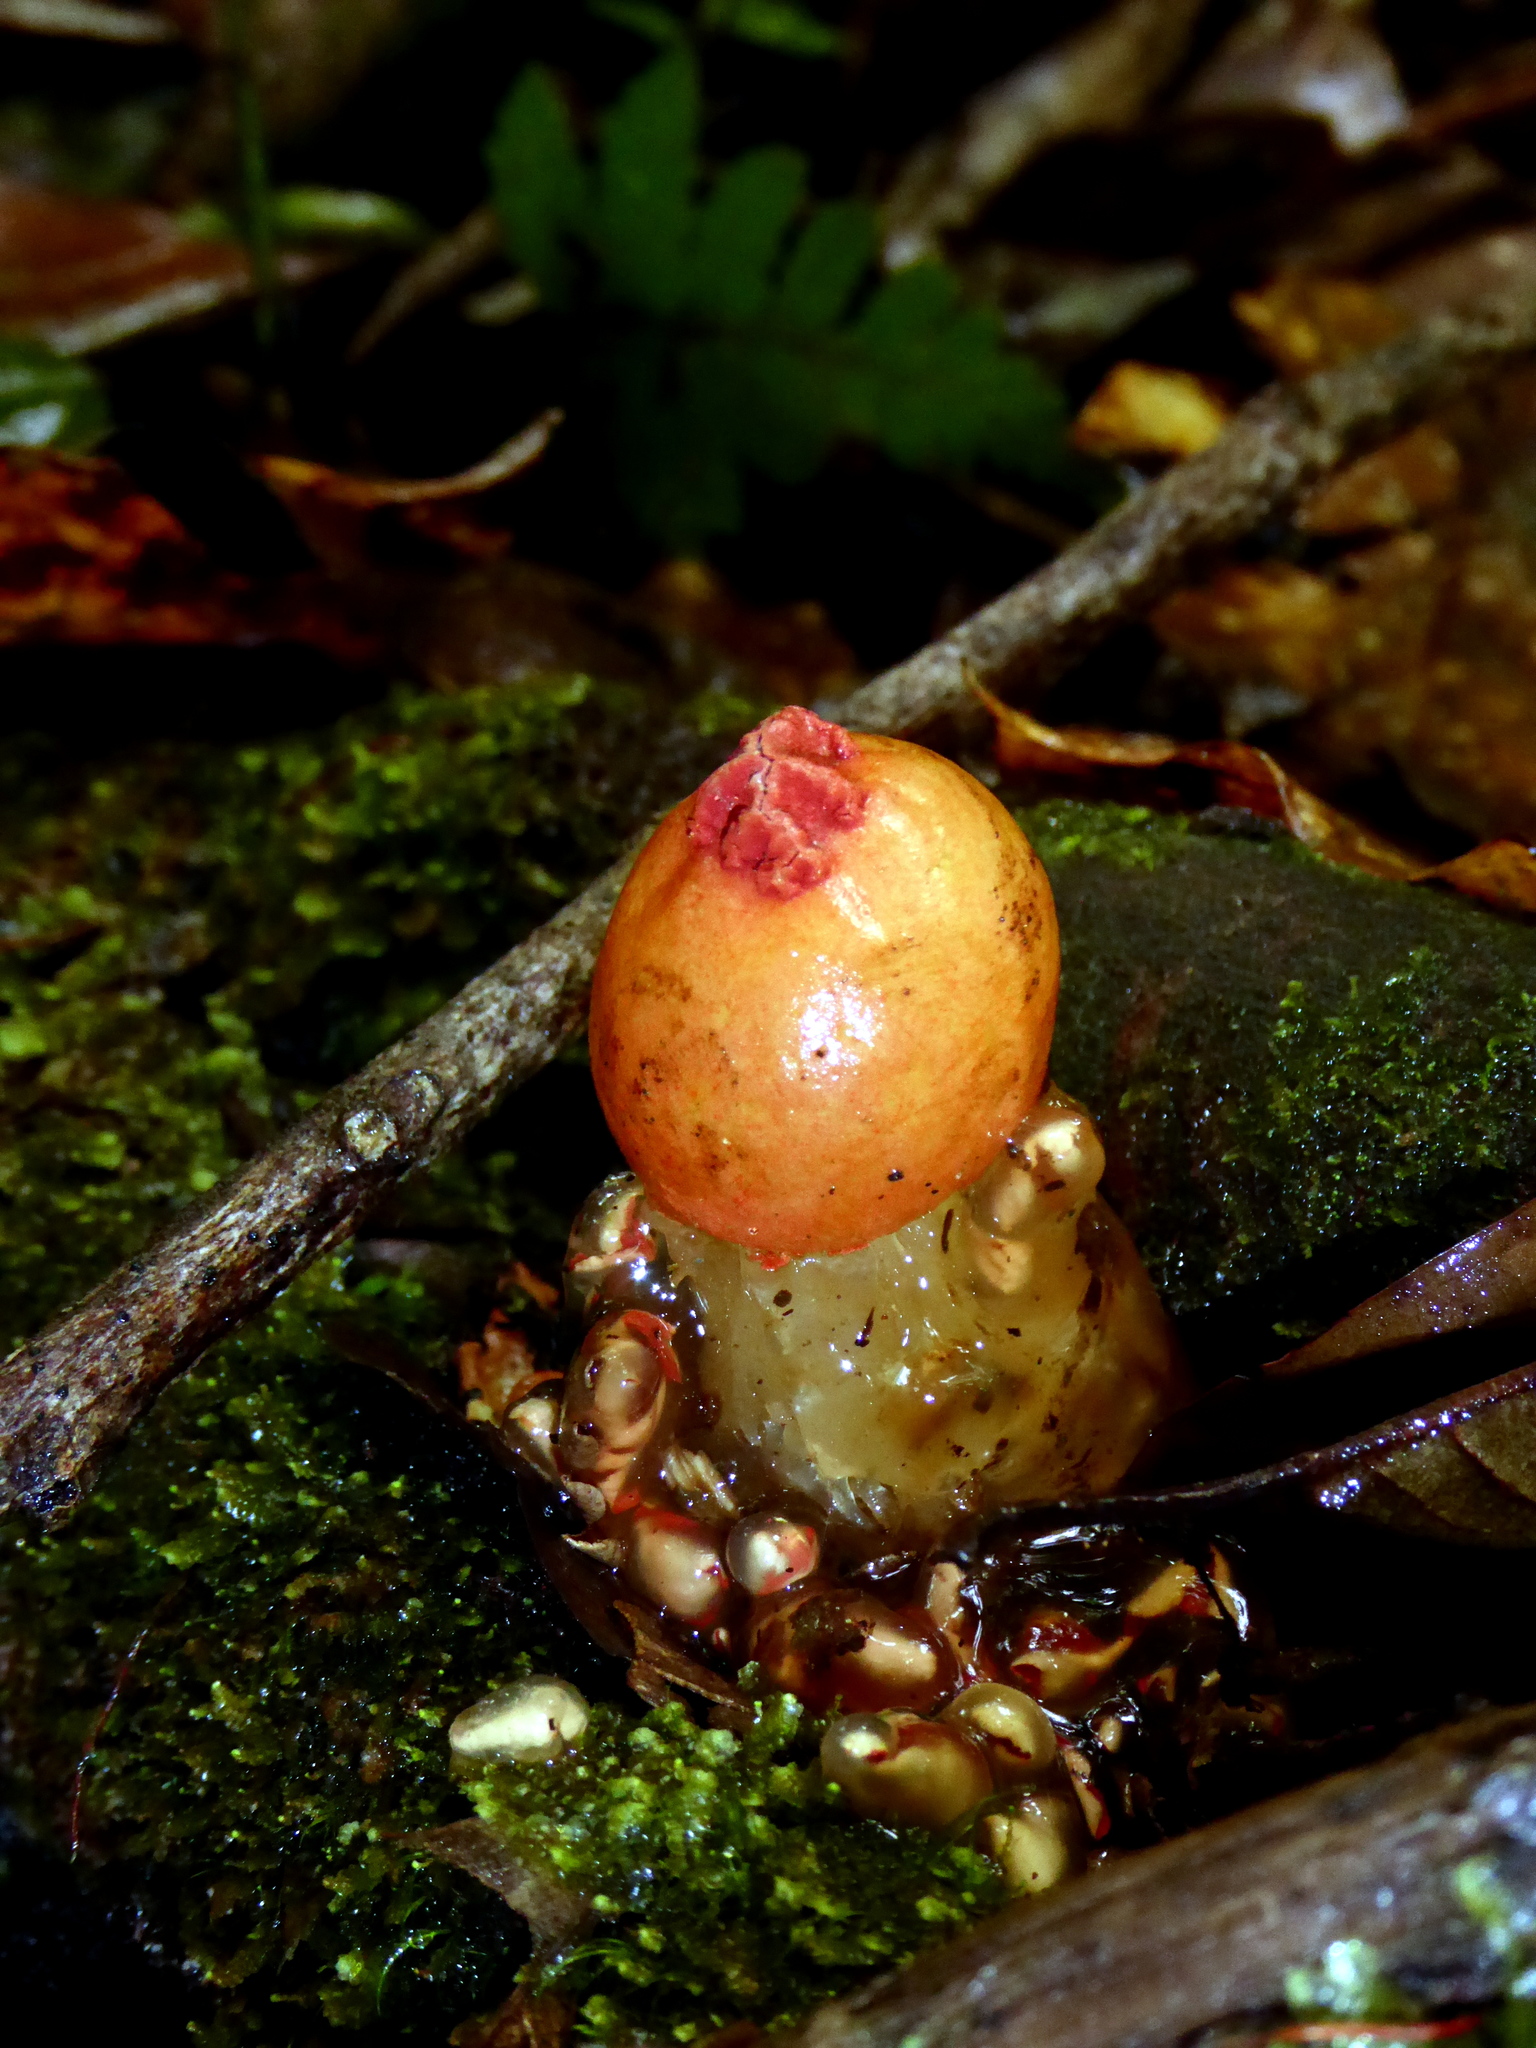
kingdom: Fungi
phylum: Basidiomycota
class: Agaricomycetes
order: Boletales
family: Calostomataceae
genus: Calostoma
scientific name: Calostoma cinnabarinum
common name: Stalked puffball-in-aspic
